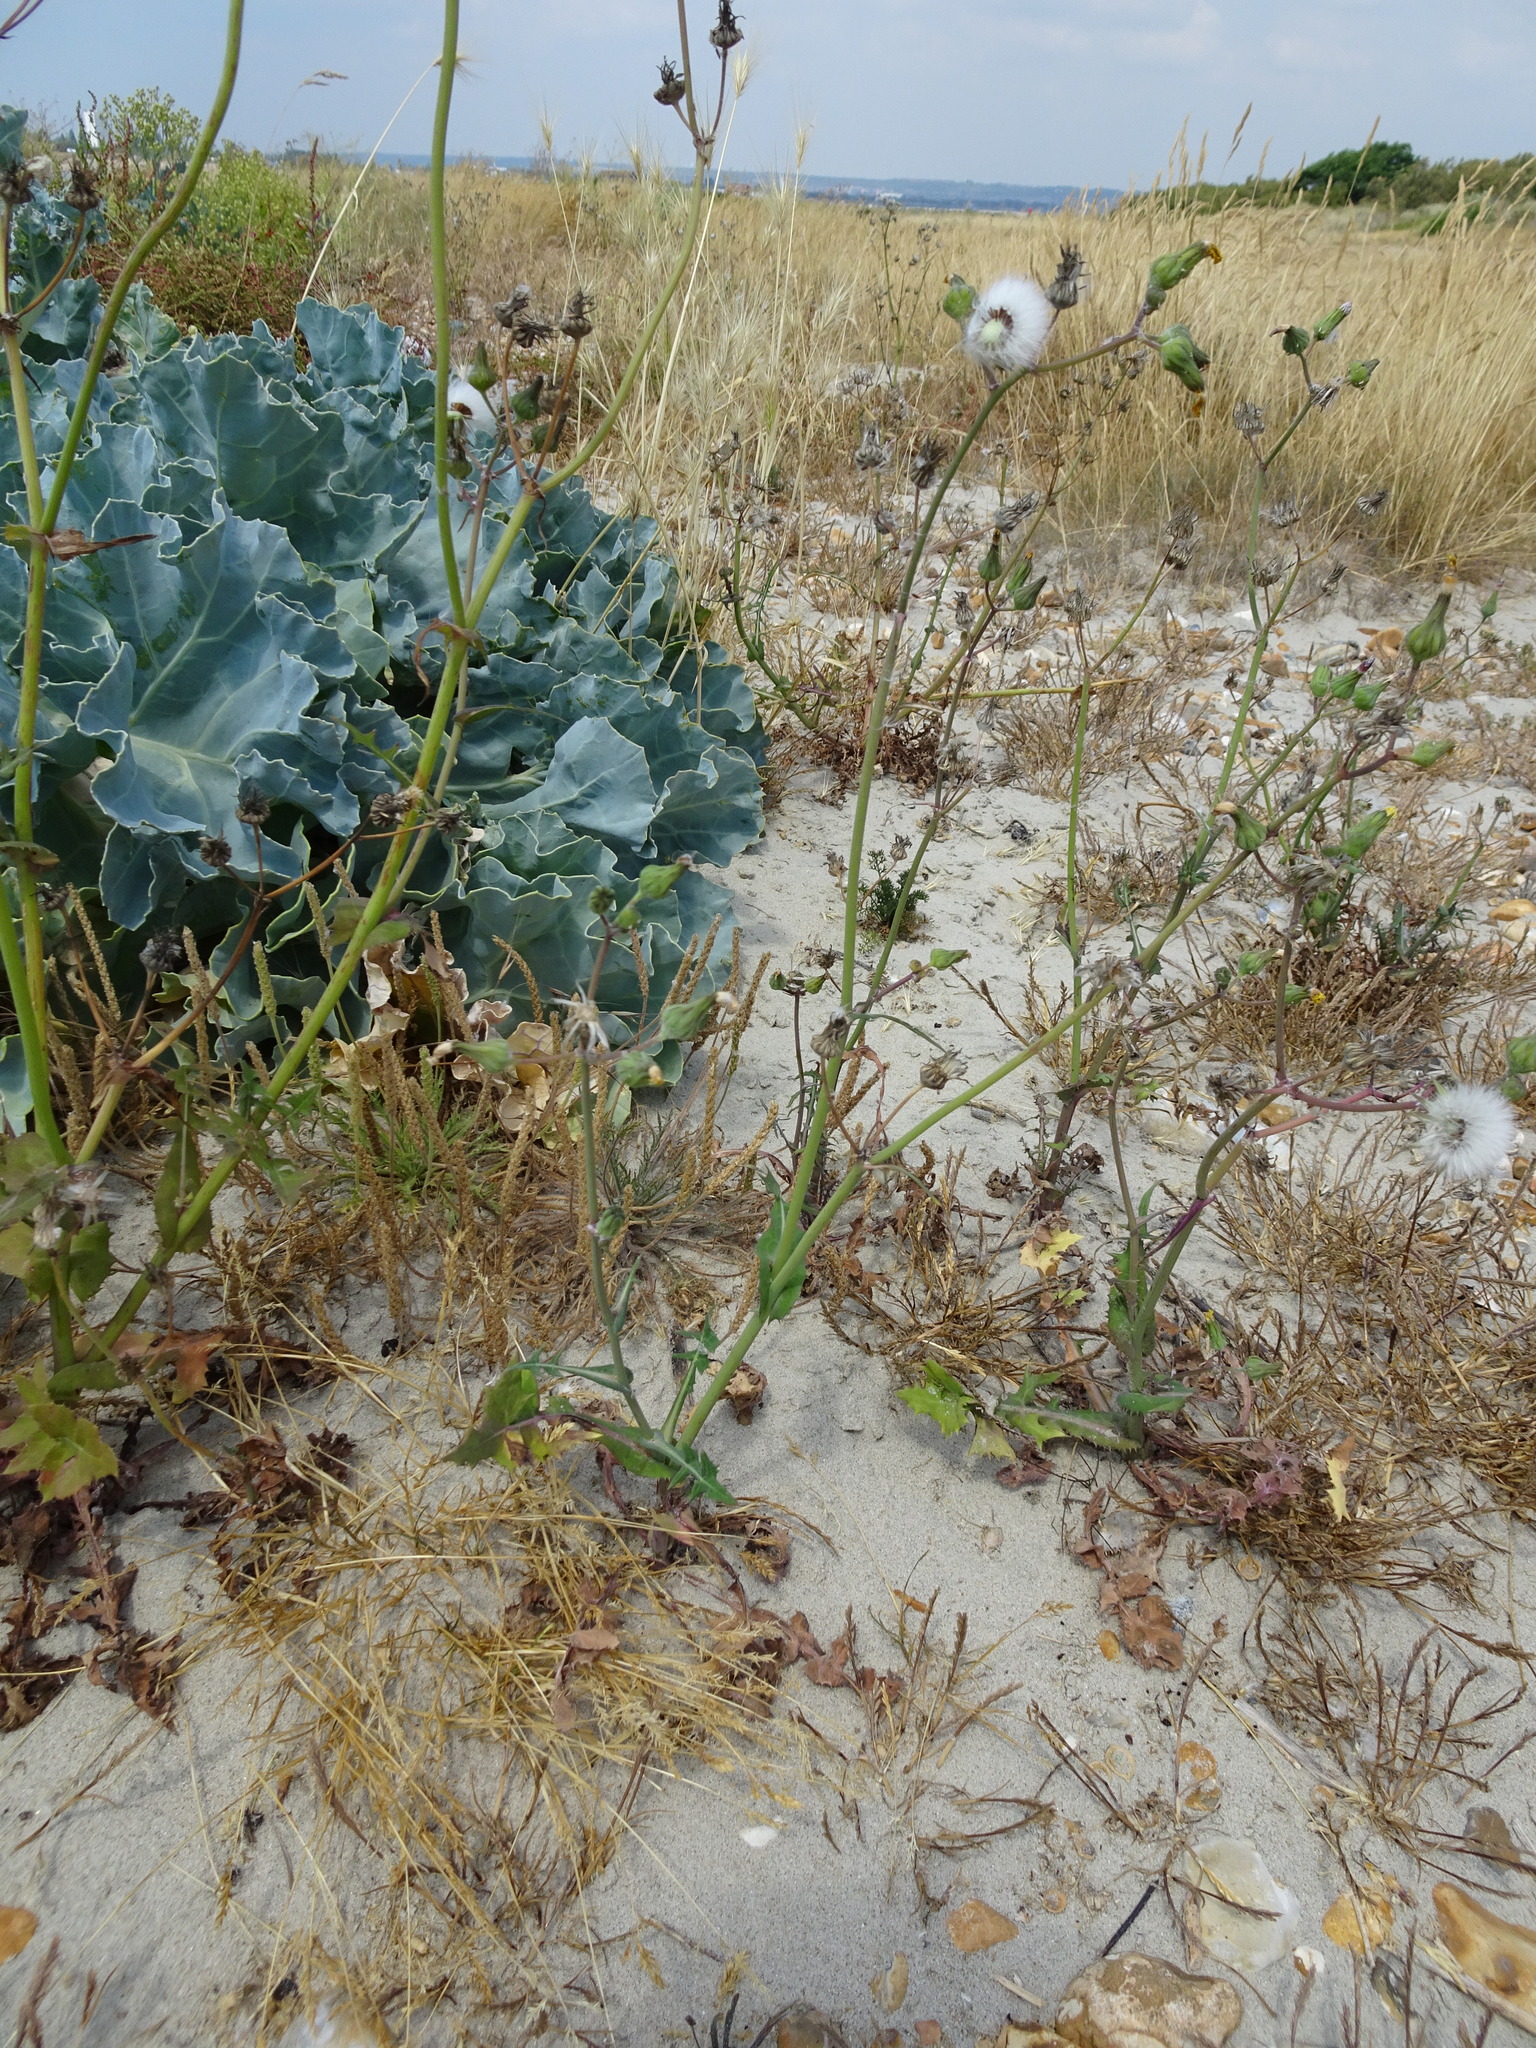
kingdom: Plantae
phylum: Tracheophyta
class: Magnoliopsida
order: Asterales
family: Asteraceae
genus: Sonchus
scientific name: Sonchus oleraceus
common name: Common sowthistle
